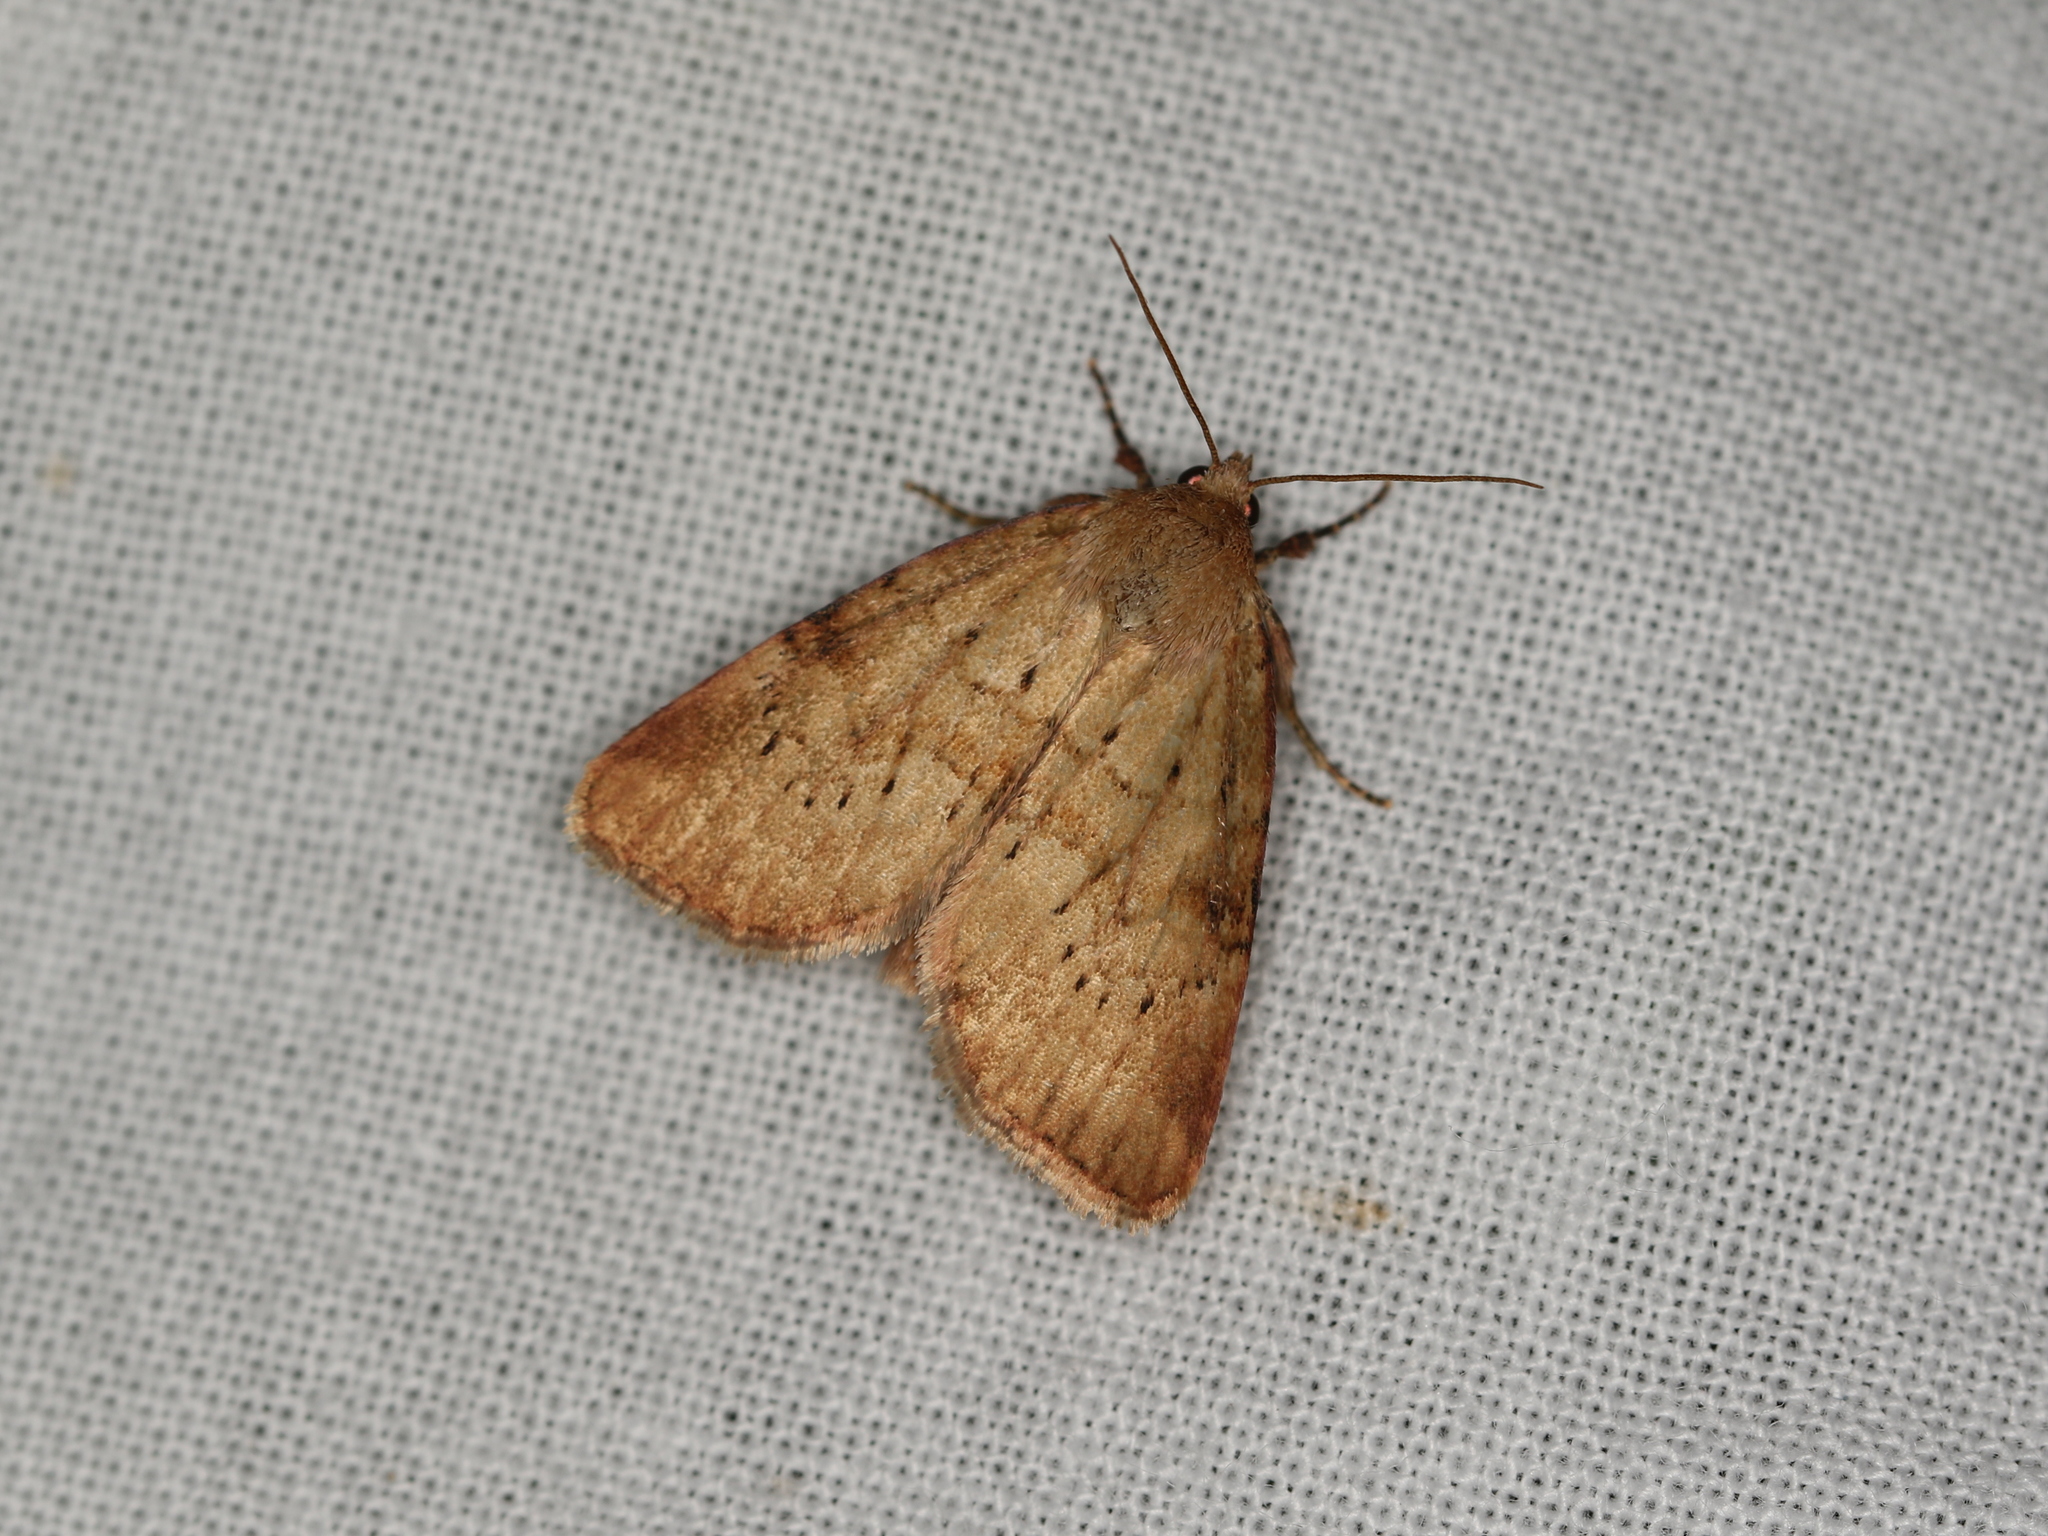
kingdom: Animalia
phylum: Arthropoda
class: Insecta
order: Lepidoptera
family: Noctuidae
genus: Photedes
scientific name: Photedes minima
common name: Small dotted buff
